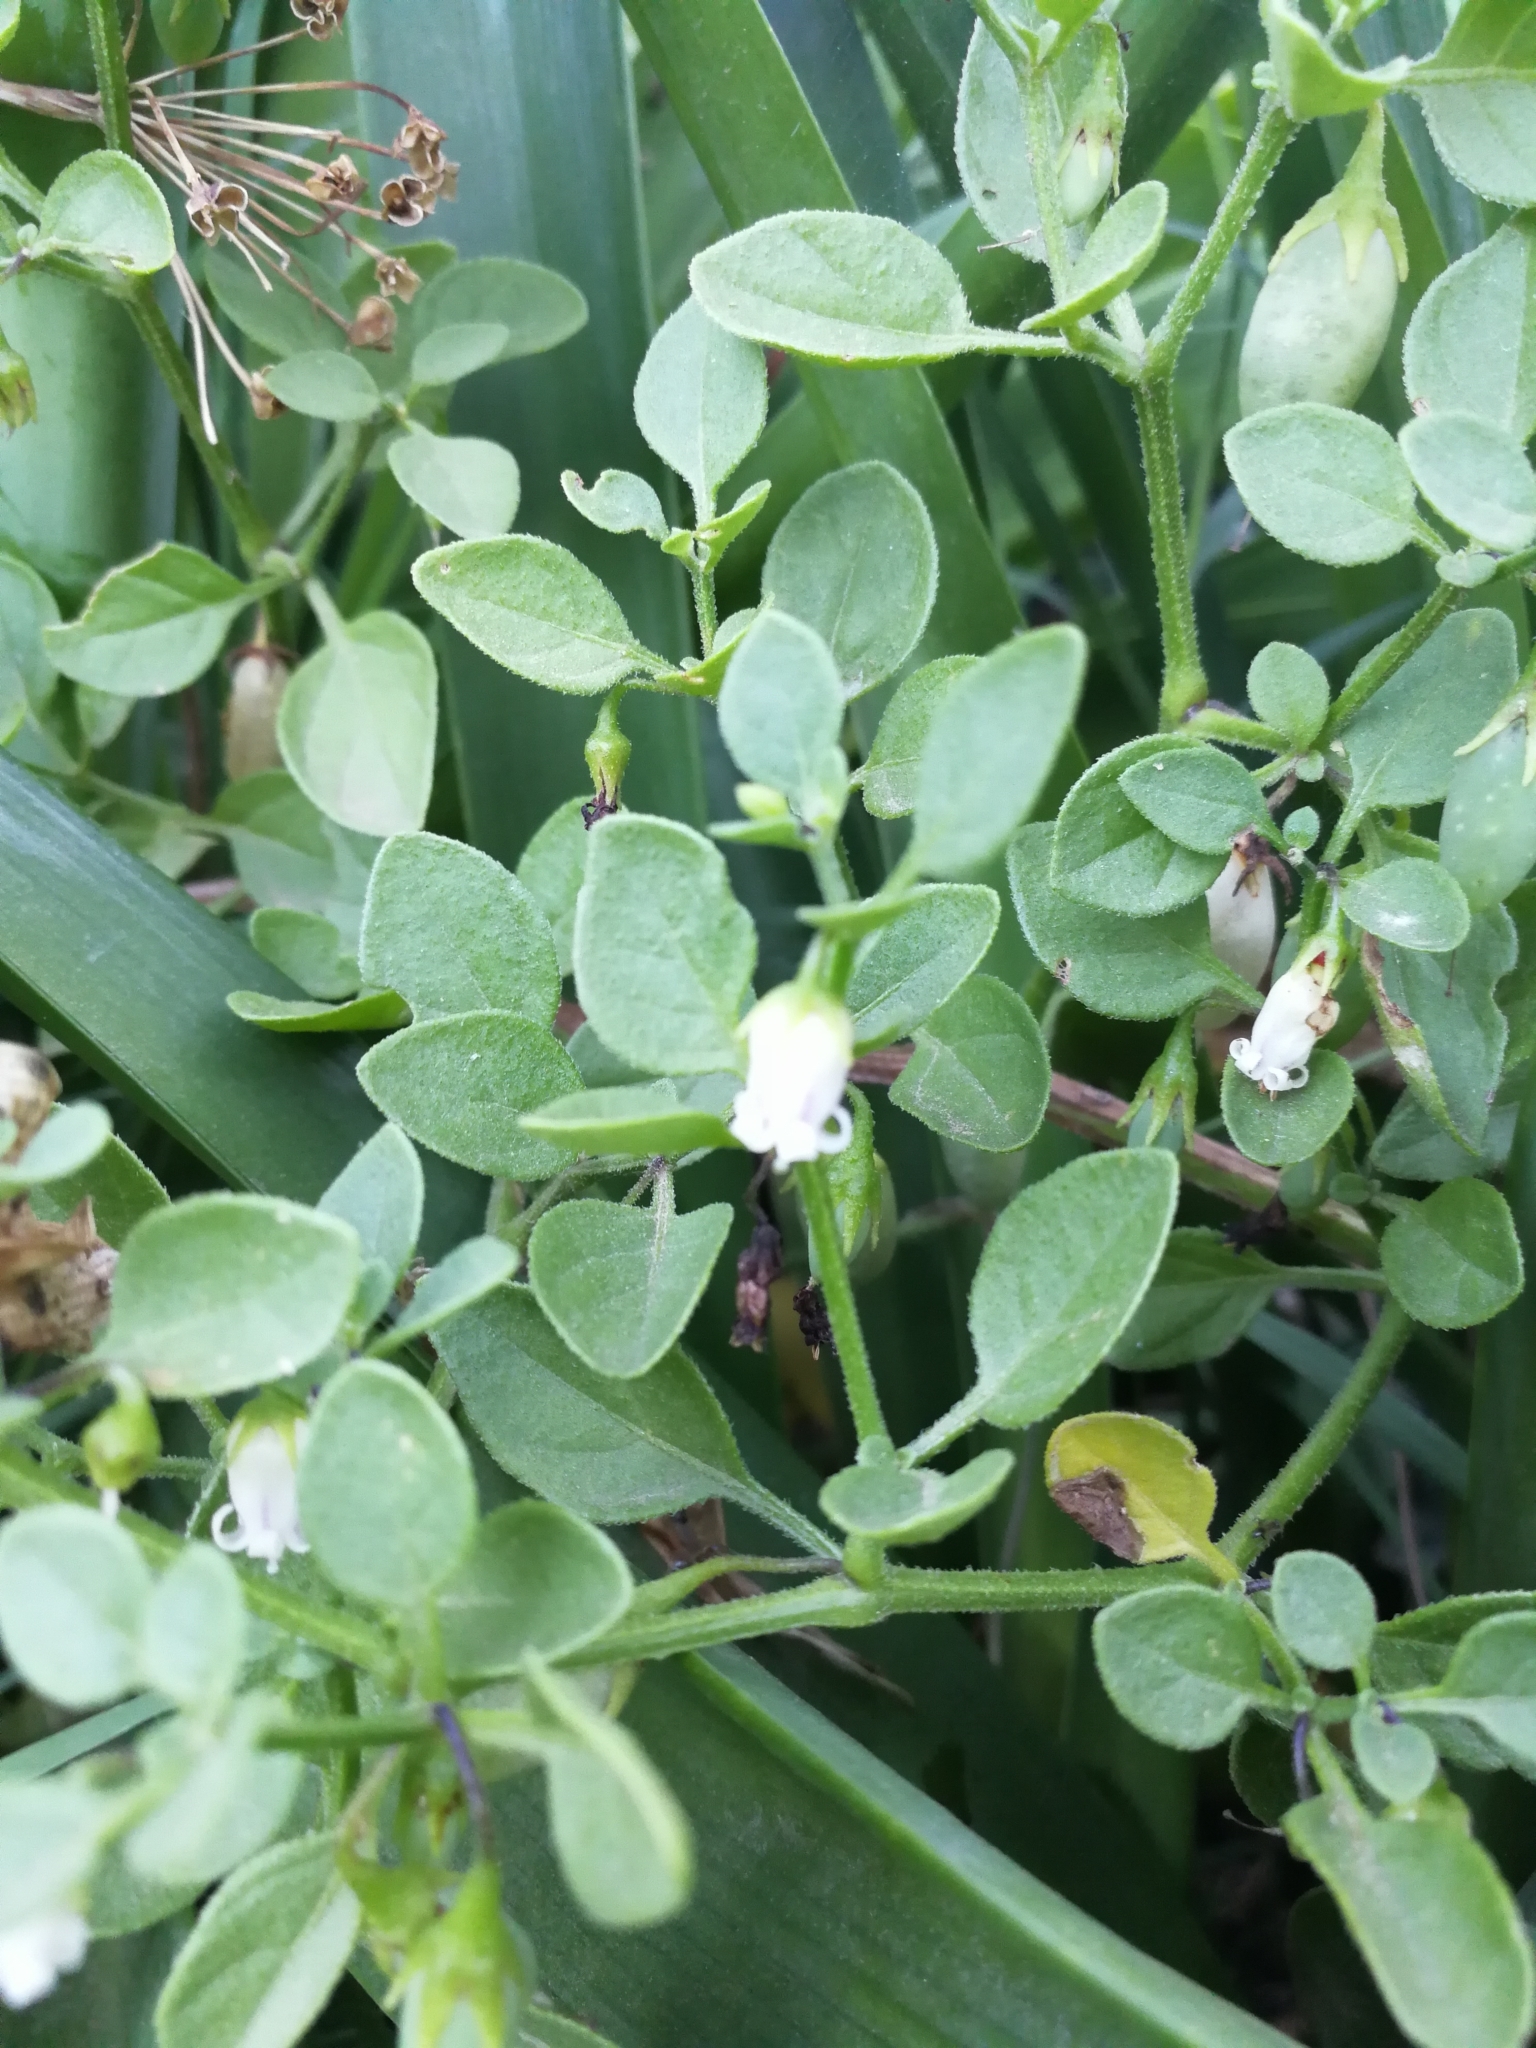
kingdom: Plantae
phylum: Tracheophyta
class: Magnoliopsida
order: Solanales
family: Solanaceae
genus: Salpichroa
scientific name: Salpichroa origanifolia
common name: Lily-of-the-valley-vine
